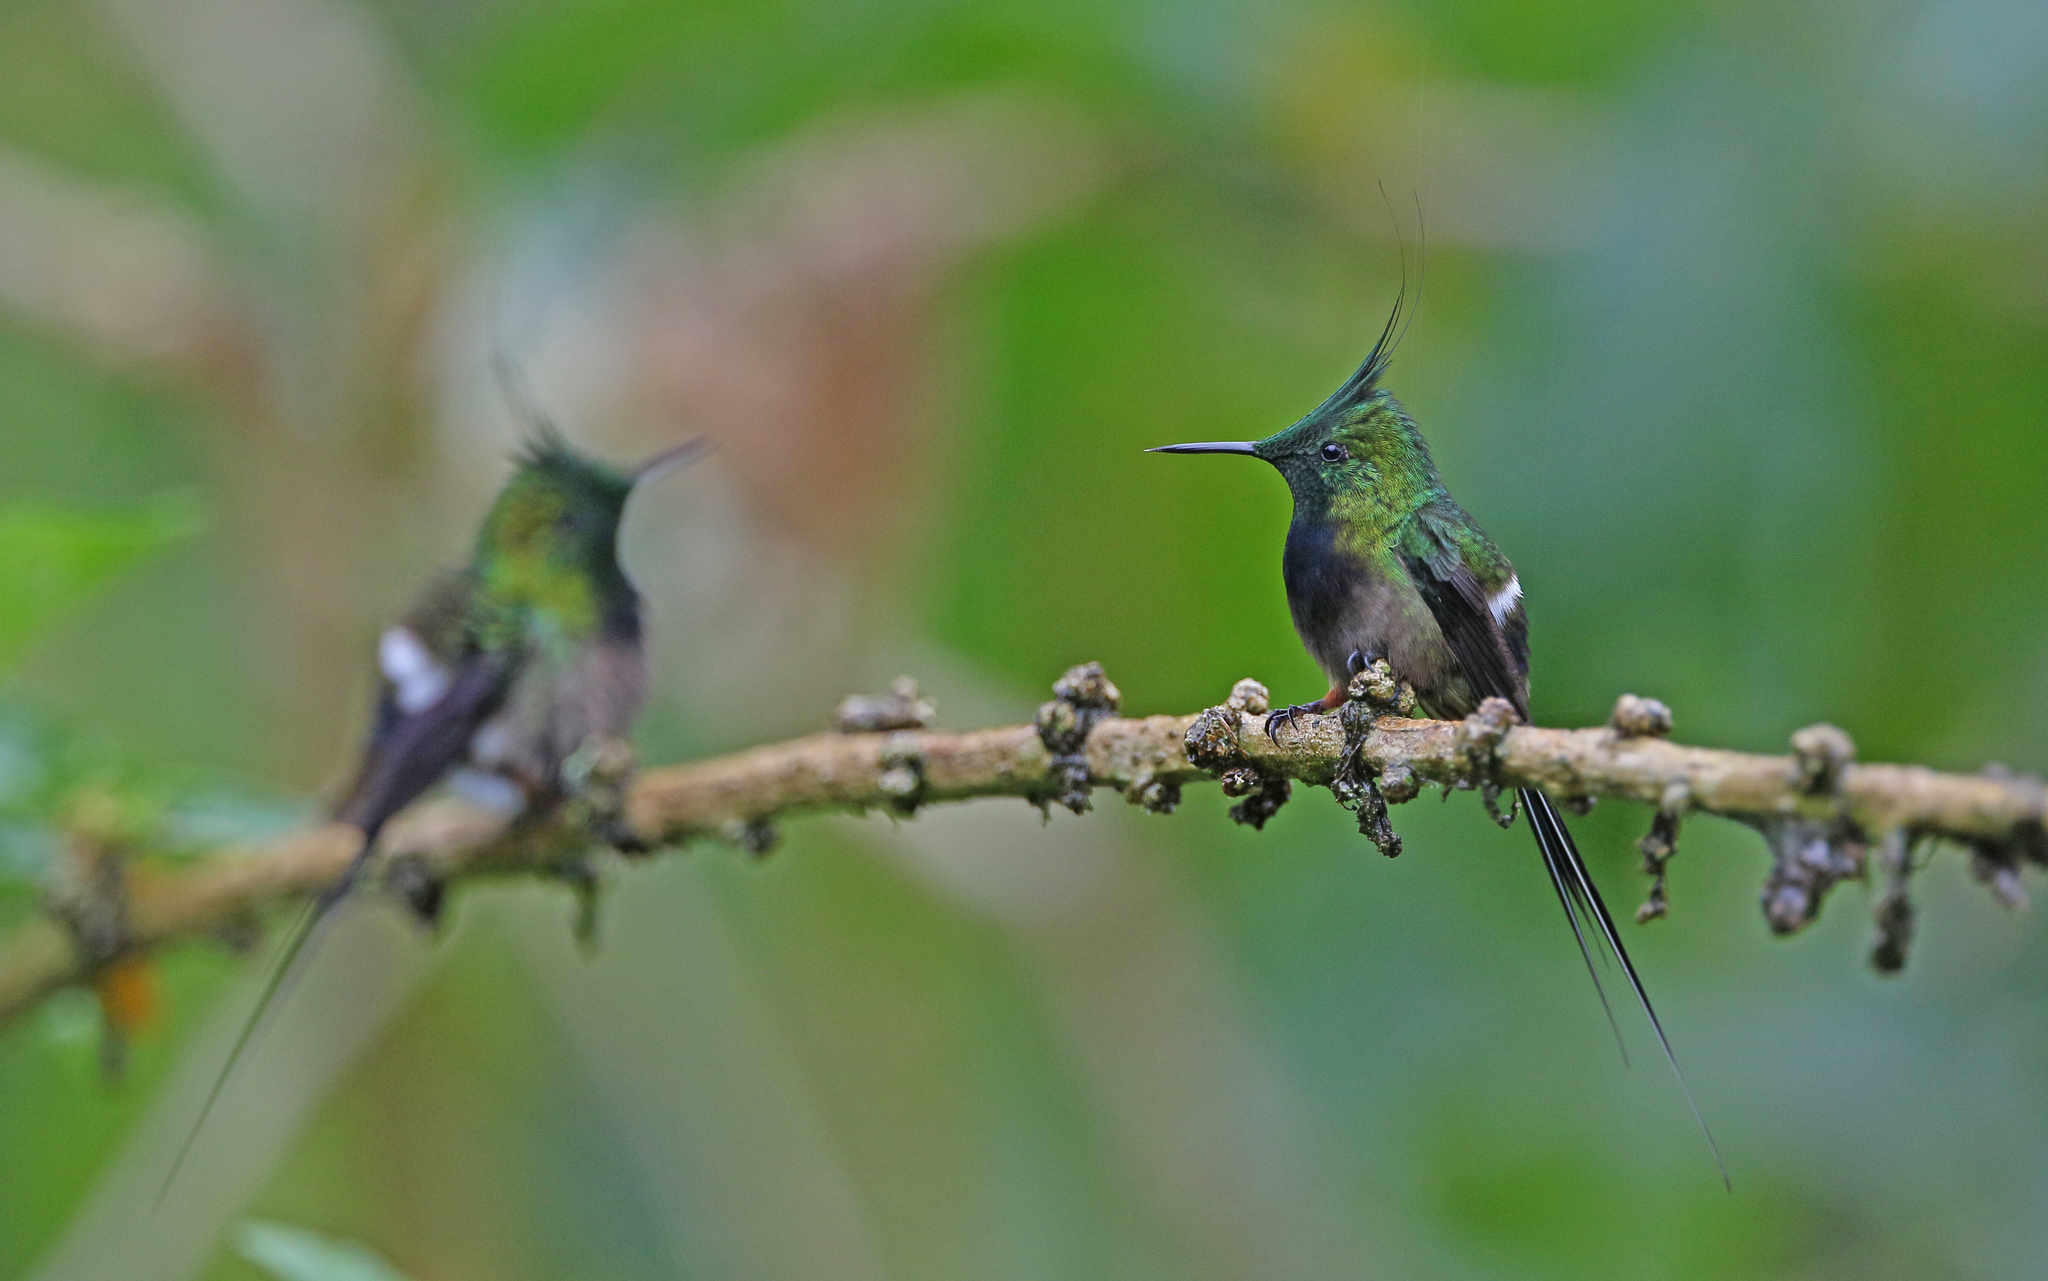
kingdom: Animalia
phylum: Chordata
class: Aves
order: Apodiformes
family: Trochilidae
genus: Discosura
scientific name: Discosura popelairii
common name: Wire-crested thorntail
